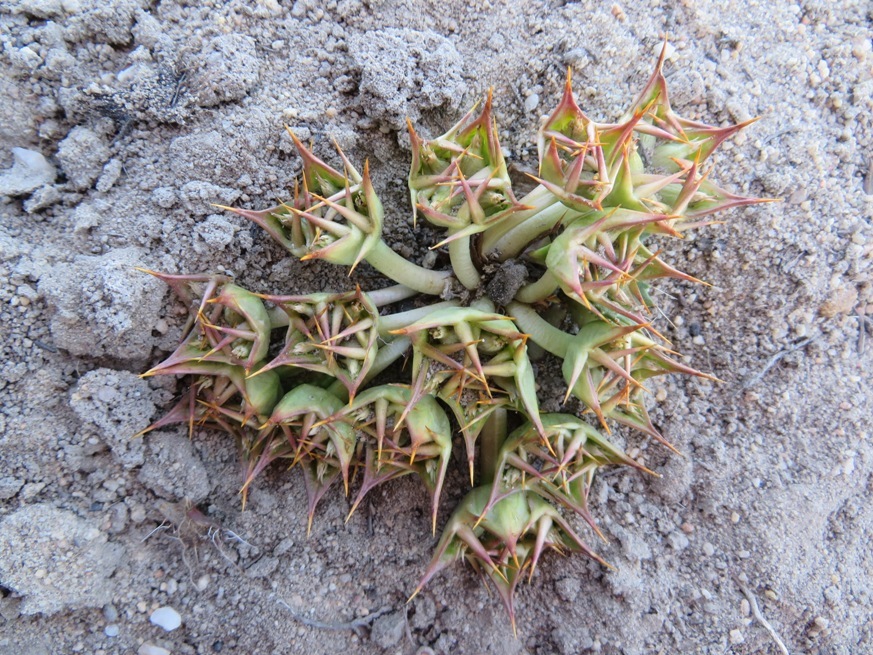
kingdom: Plantae
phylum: Tracheophyta
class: Magnoliopsida
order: Apiales
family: Apiaceae
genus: Arctopus
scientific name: Arctopus echinatus
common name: Platdoring
